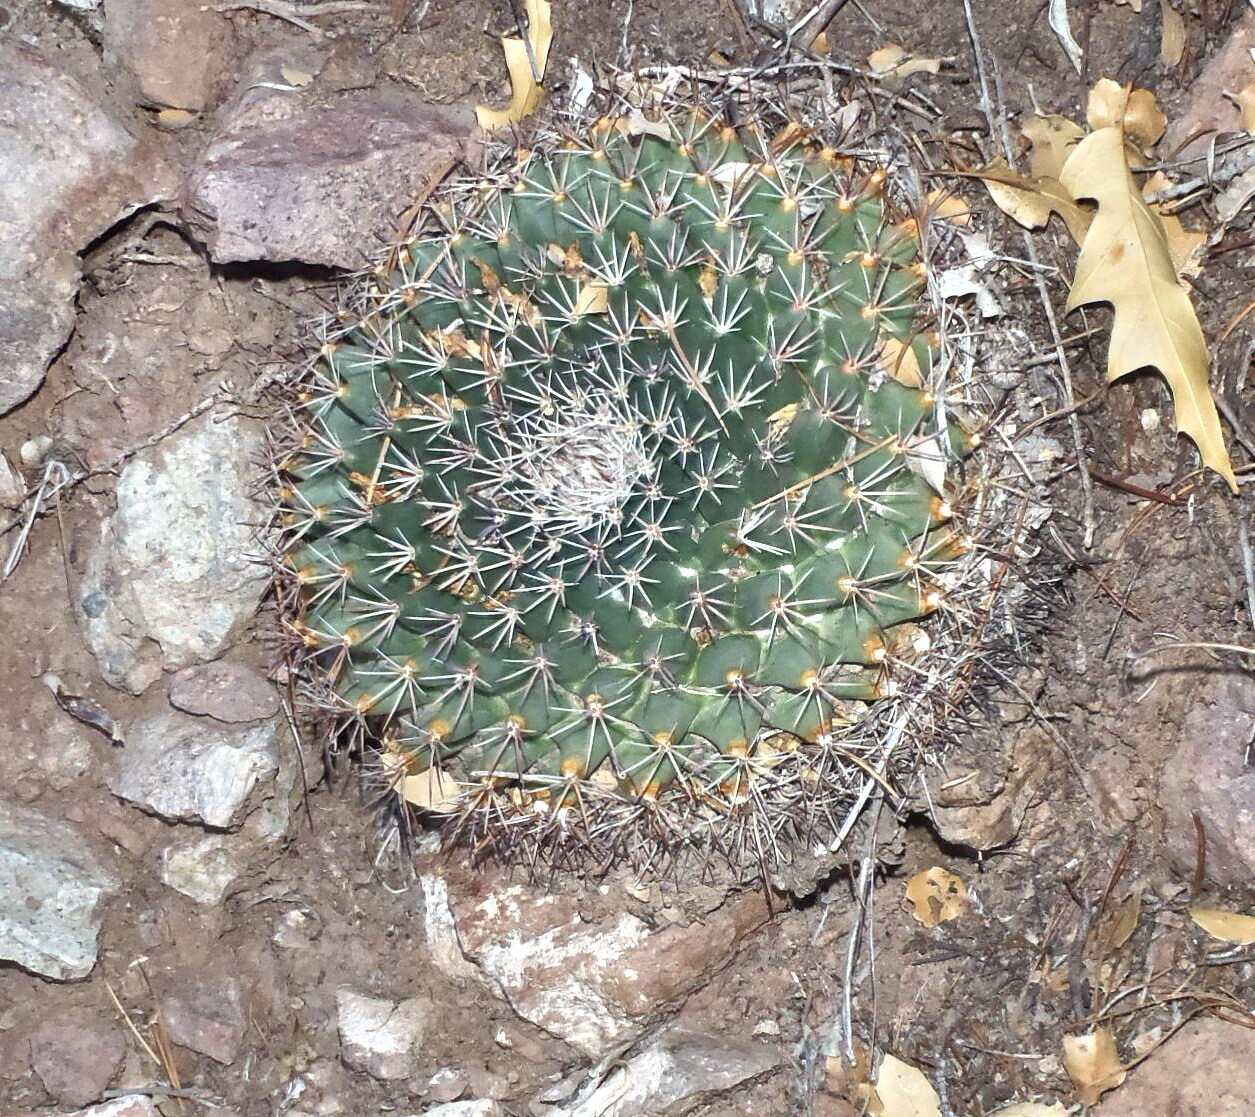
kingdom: Plantae
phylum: Tracheophyta
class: Magnoliopsida
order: Caryophyllales
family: Cactaceae
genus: Mammillaria
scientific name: Mammillaria heyderi
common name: Little nipple cactus
